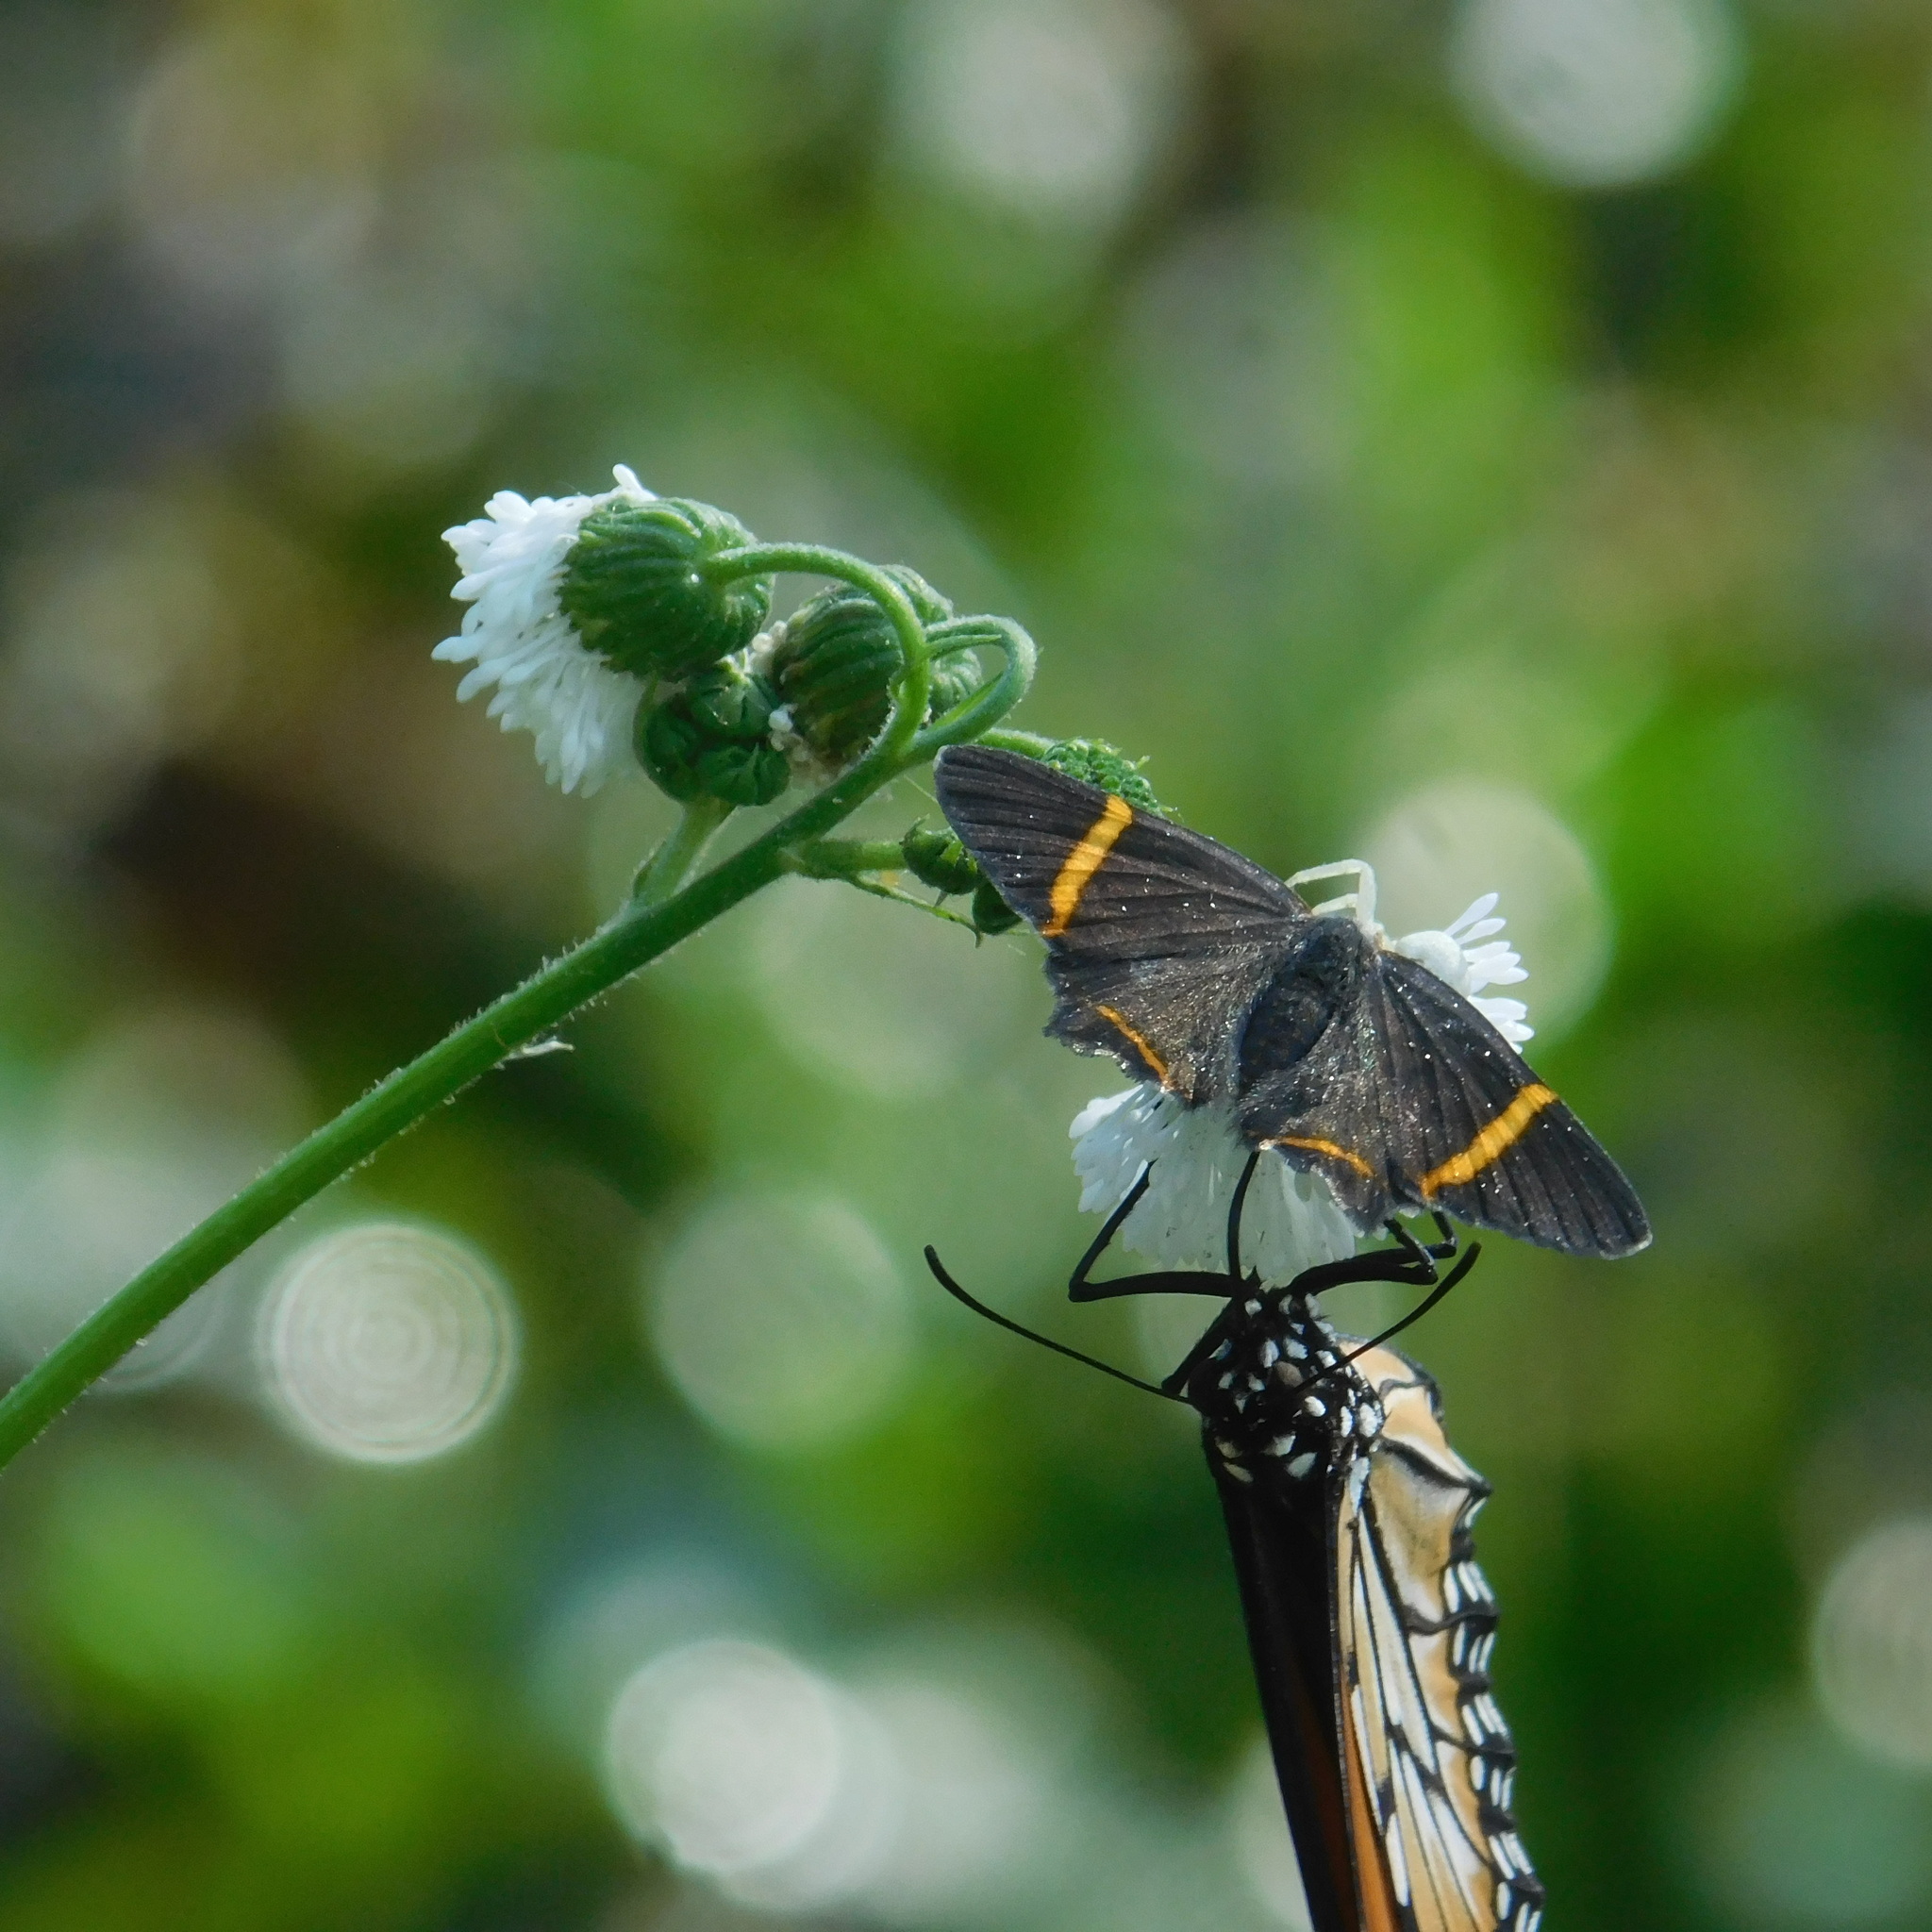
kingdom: Animalia
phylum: Arthropoda
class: Insecta
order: Lepidoptera
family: Riodinidae
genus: Riodina
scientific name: Riodina lysippoides
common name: Little dancer metalmark
